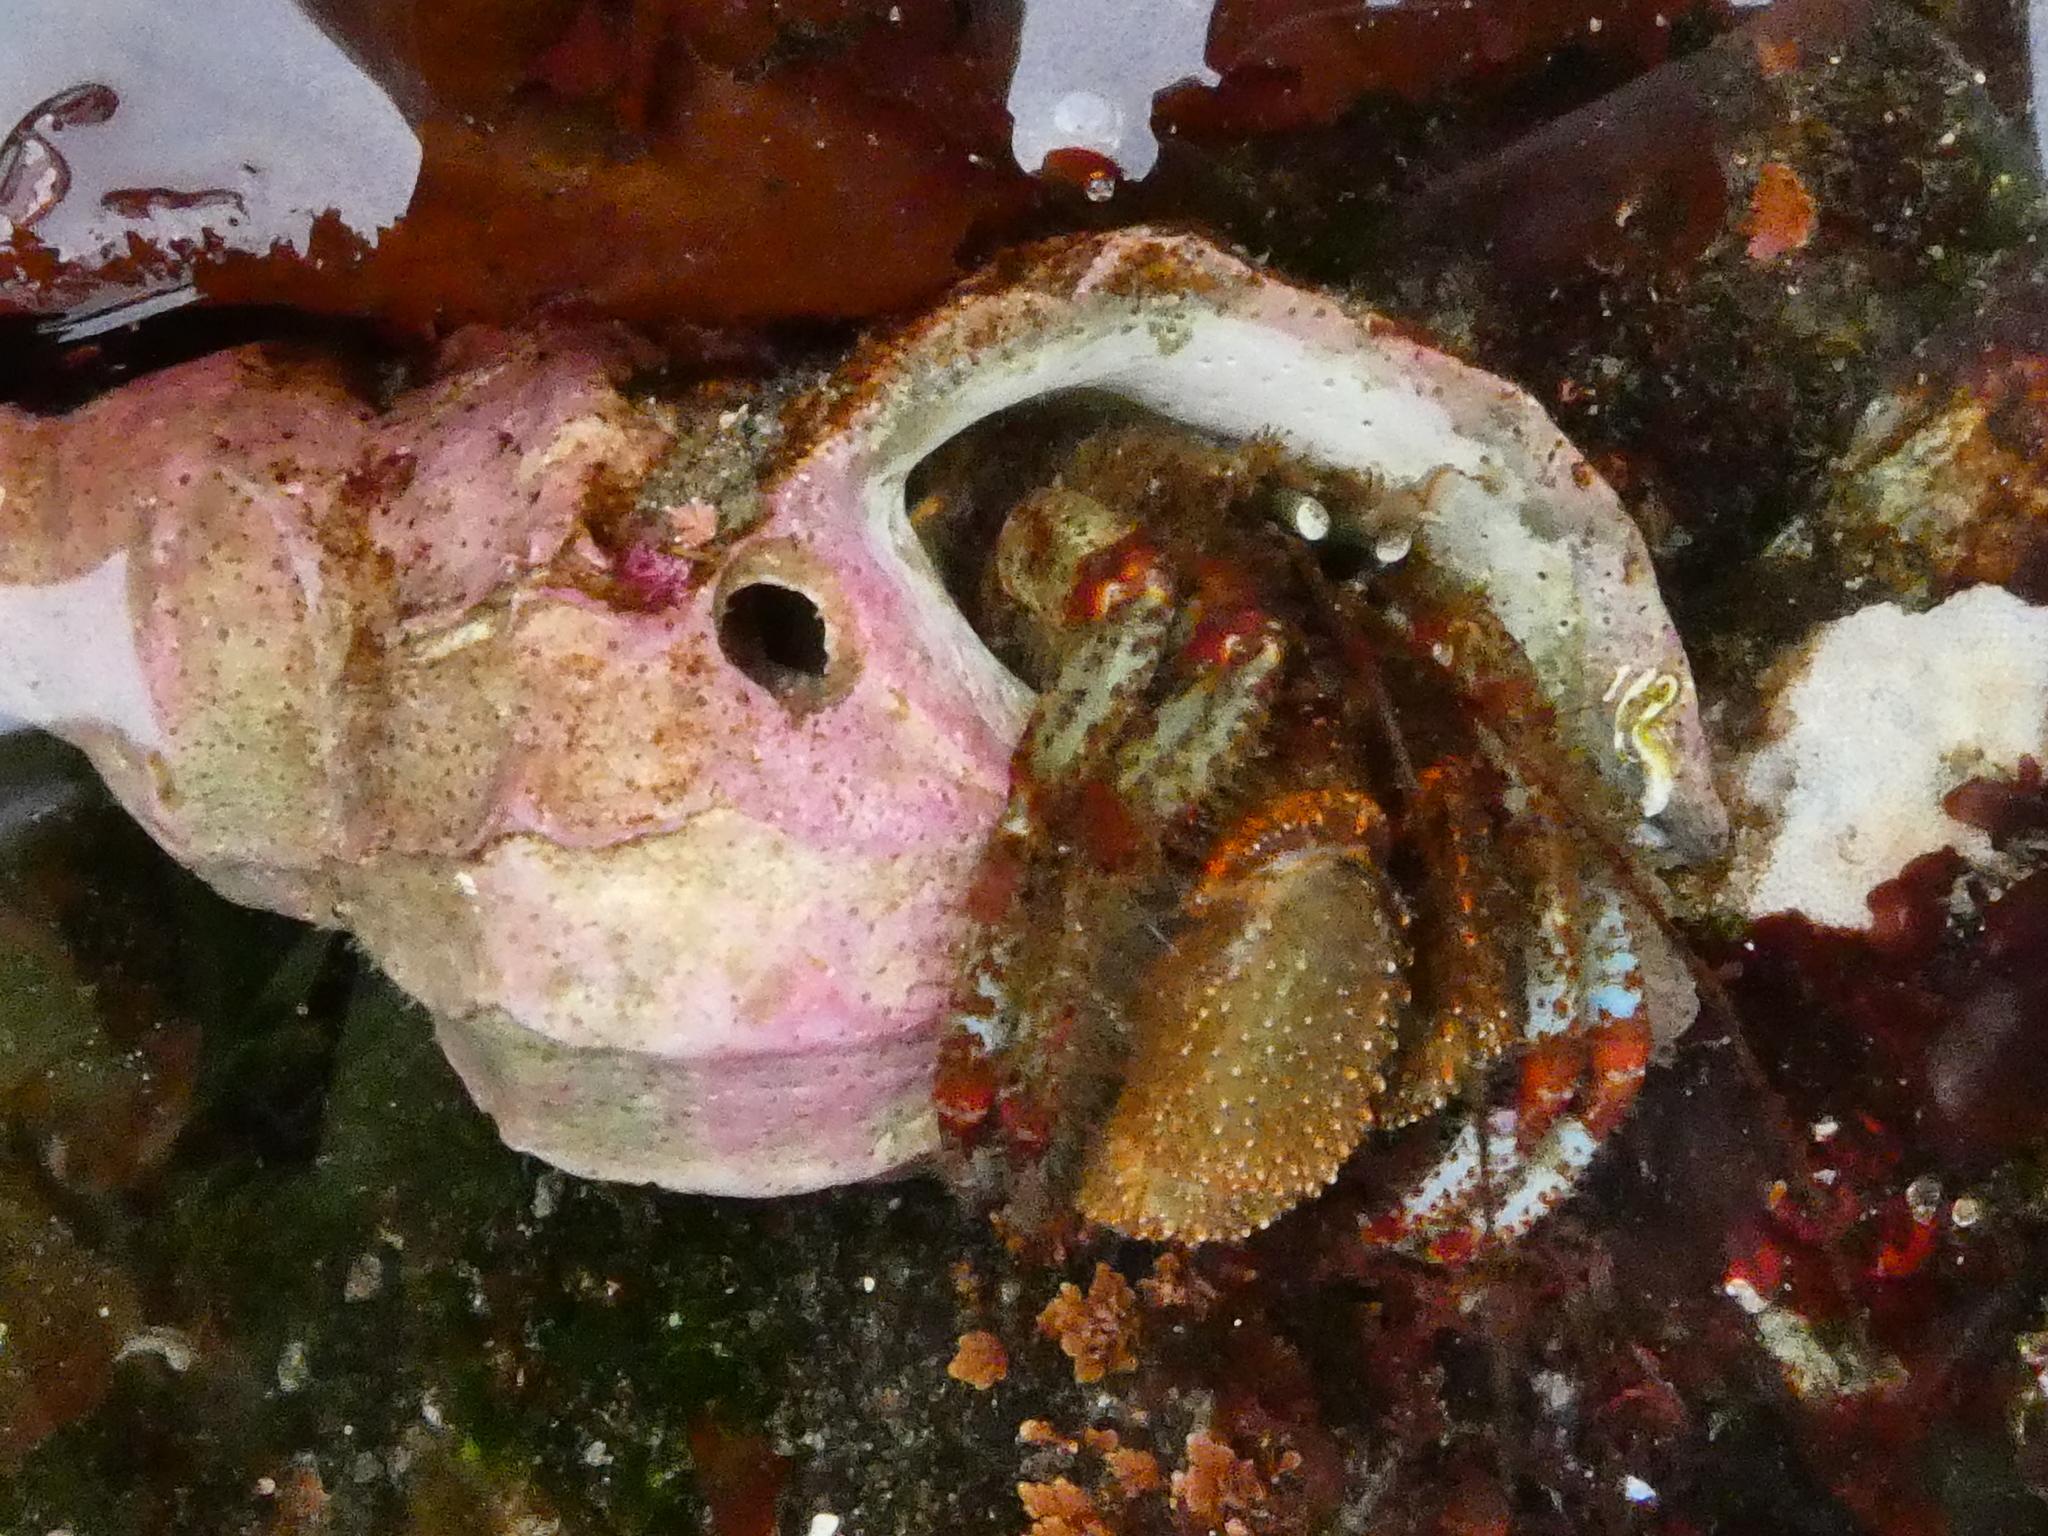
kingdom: Animalia
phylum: Arthropoda
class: Malacostraca
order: Decapoda
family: Paguridae
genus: Pagurus
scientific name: Pagurus beringanus
